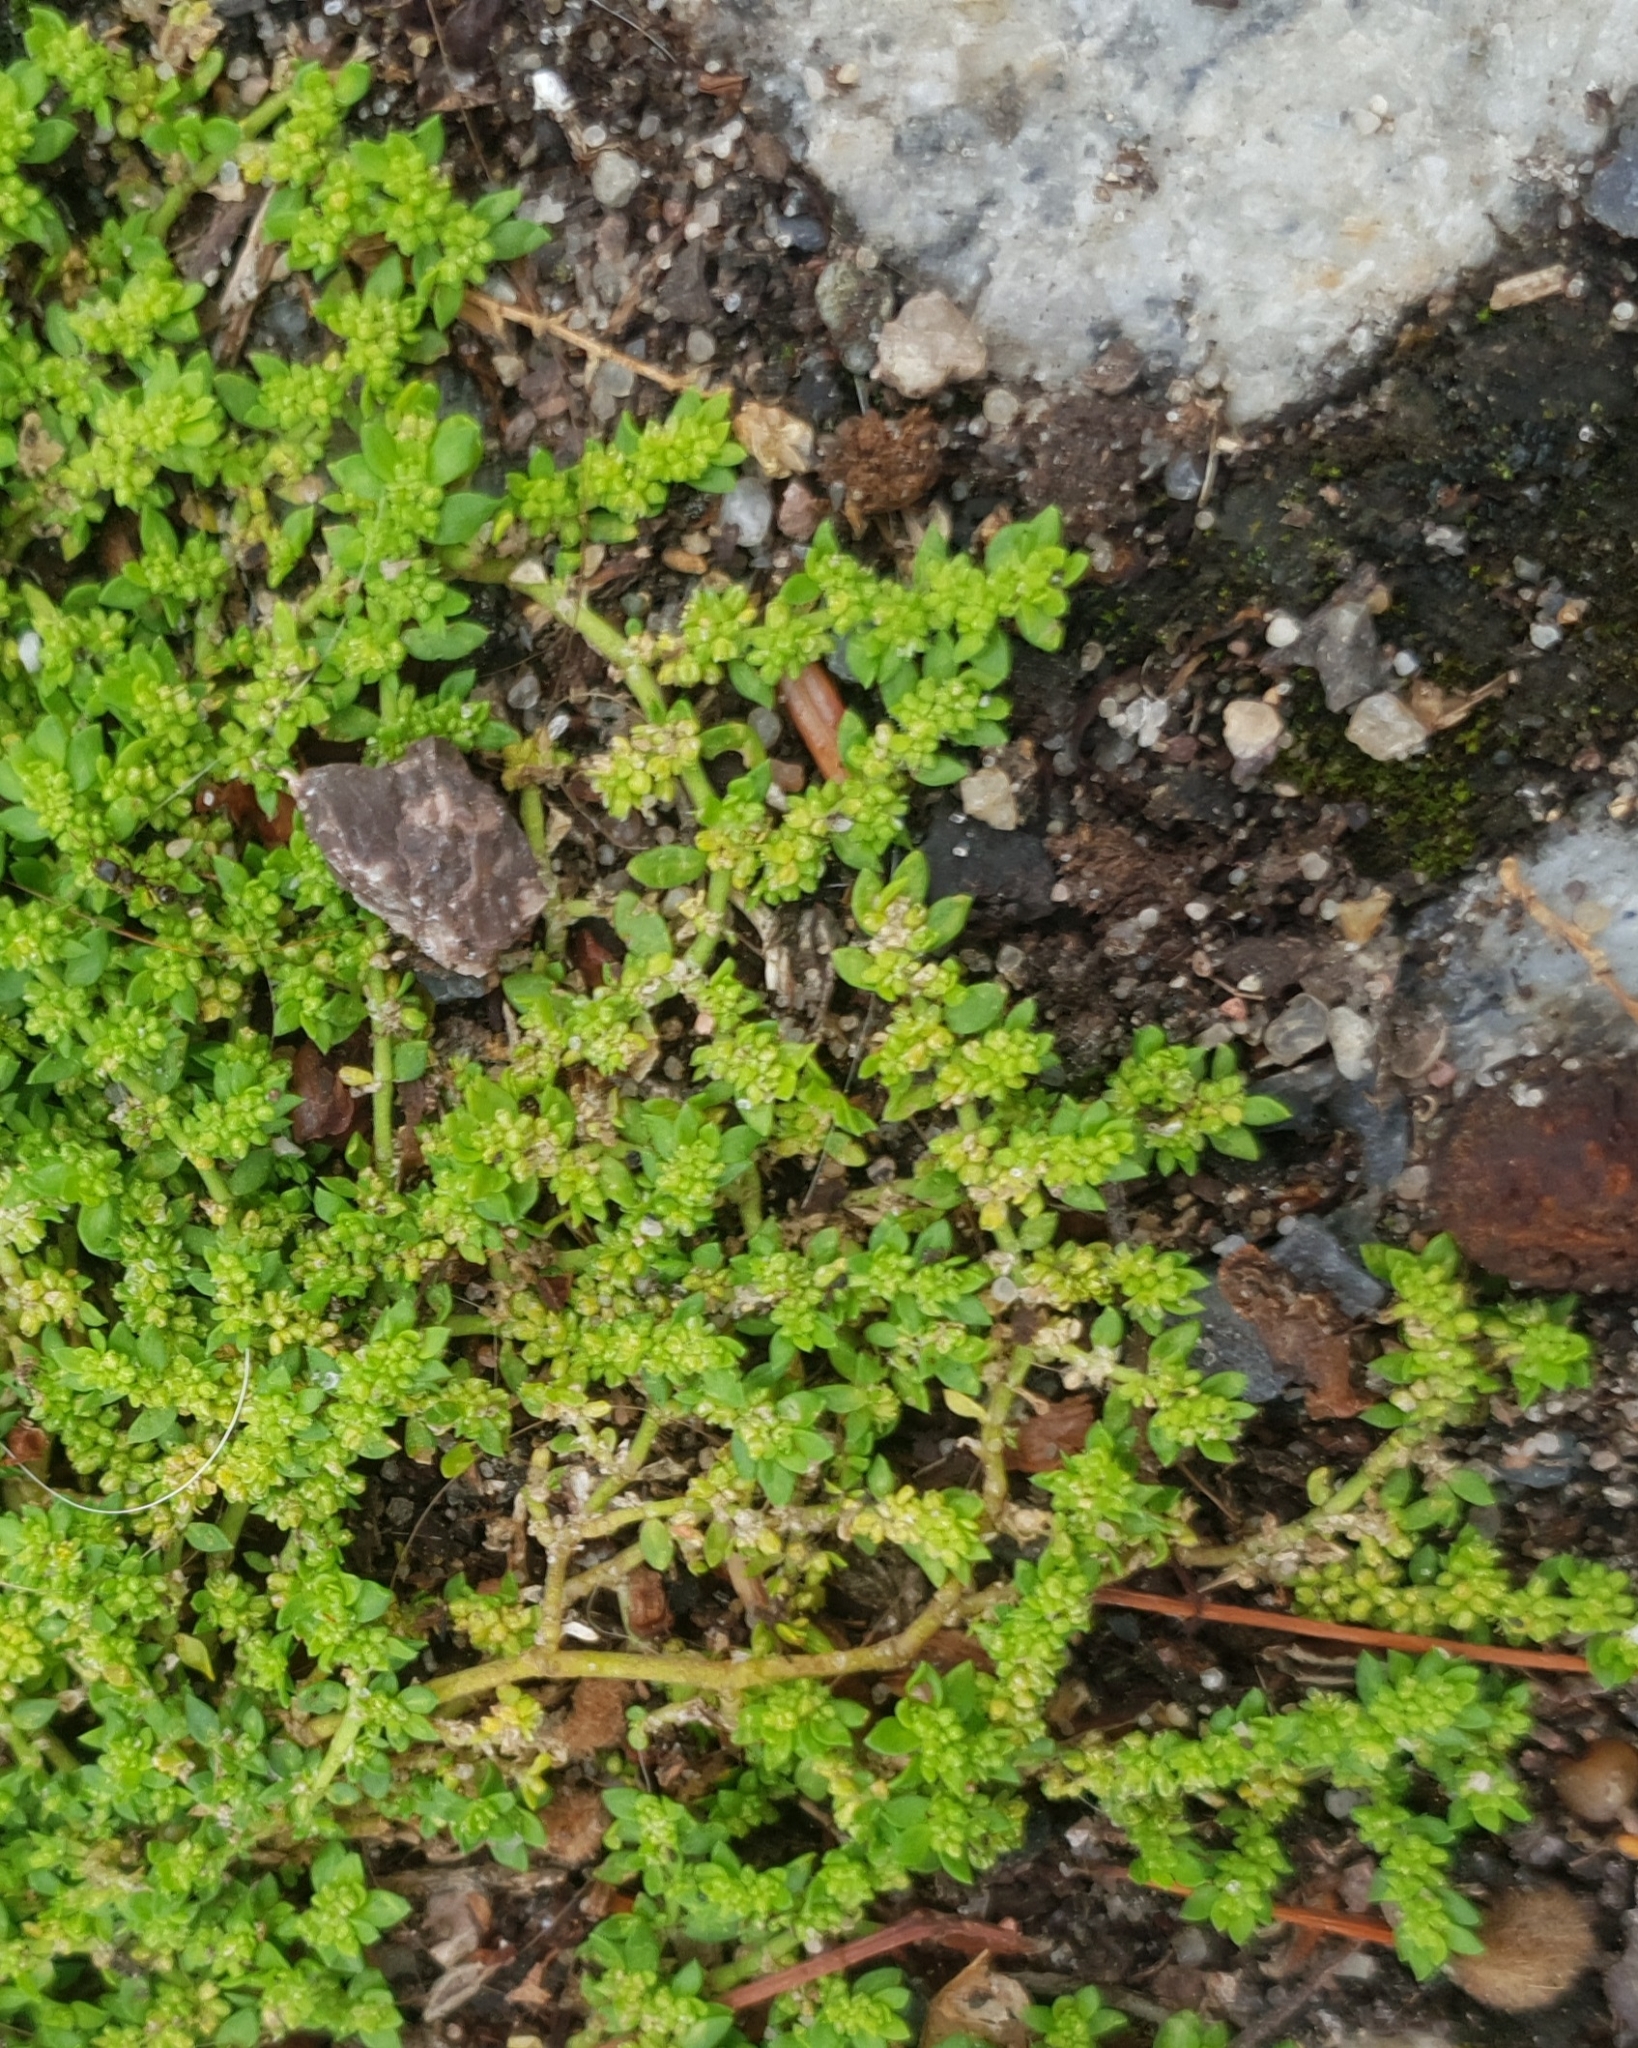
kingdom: Plantae
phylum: Tracheophyta
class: Magnoliopsida
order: Caryophyllales
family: Caryophyllaceae
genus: Herniaria
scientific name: Herniaria glabra
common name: Smooth rupturewort
